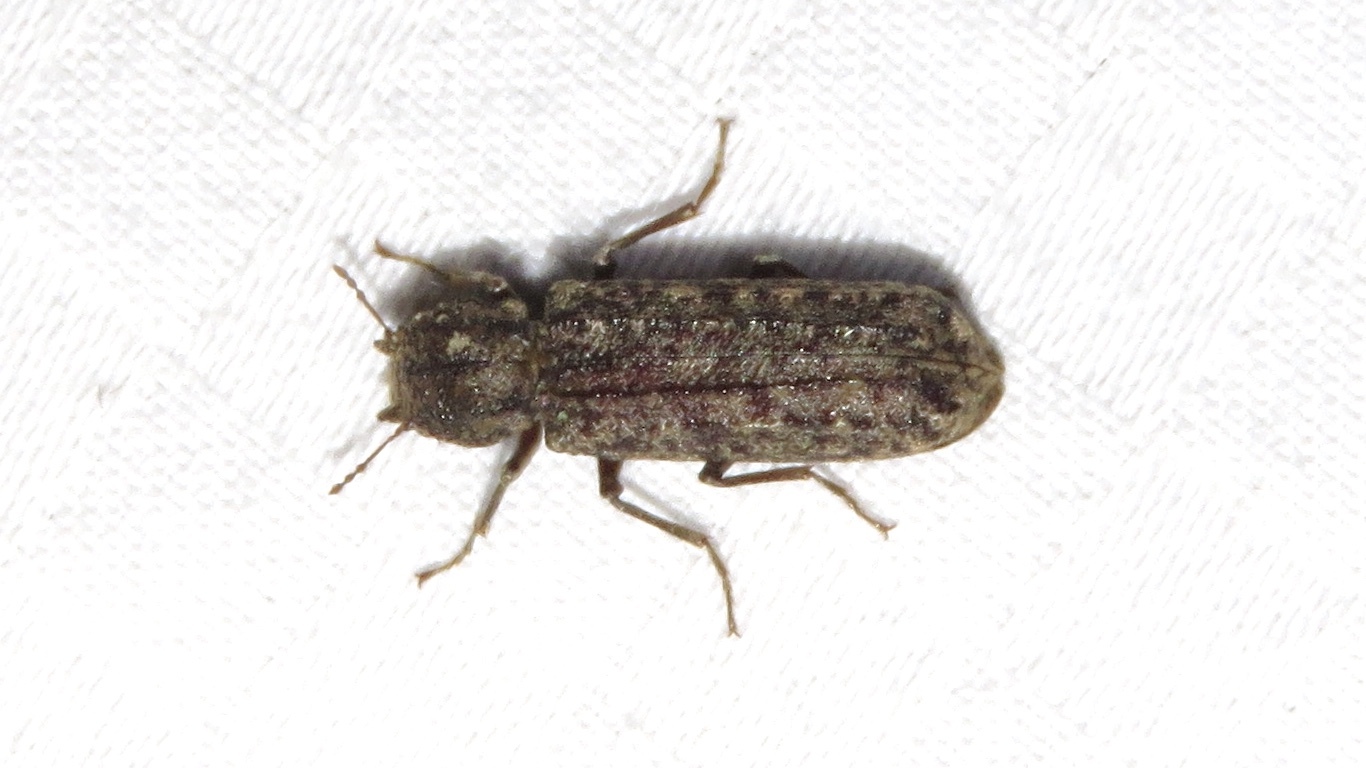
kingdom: Animalia
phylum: Arthropoda
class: Insecta
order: Coleoptera
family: Bostrichidae
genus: Lichenophanes
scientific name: Lichenophanes bicornis
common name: Two-horned powder-post beetle
